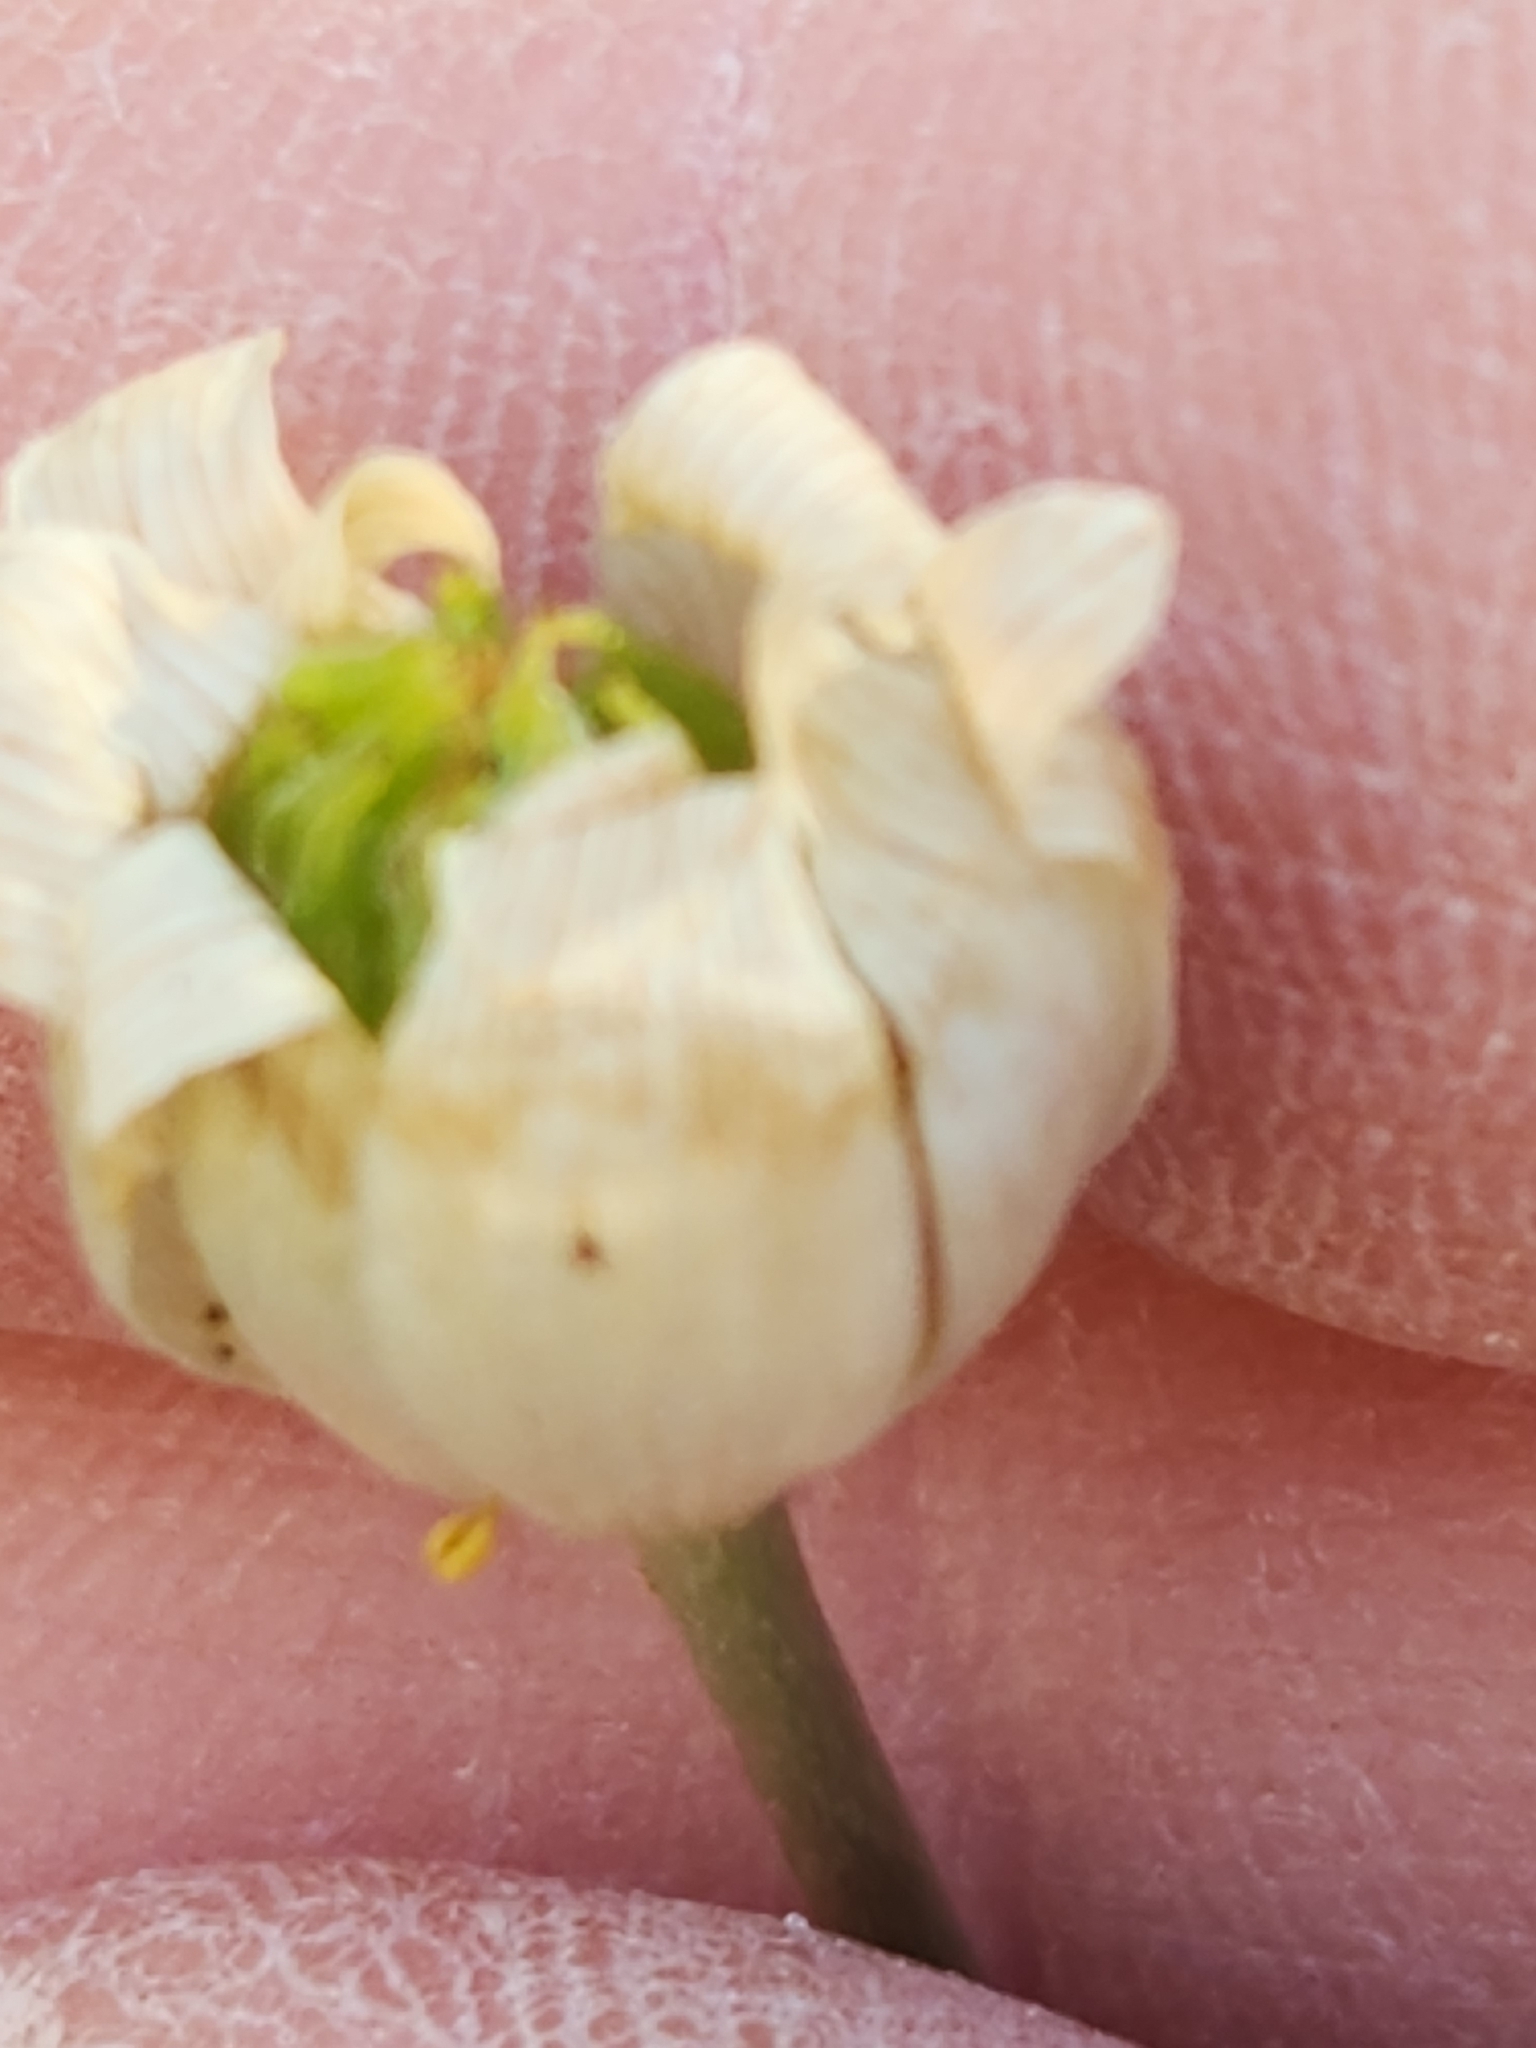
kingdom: Plantae
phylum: Tracheophyta
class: Magnoliopsida
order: Ranunculales
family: Ranunculaceae
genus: Anemone
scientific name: Anemone edwardsiana
